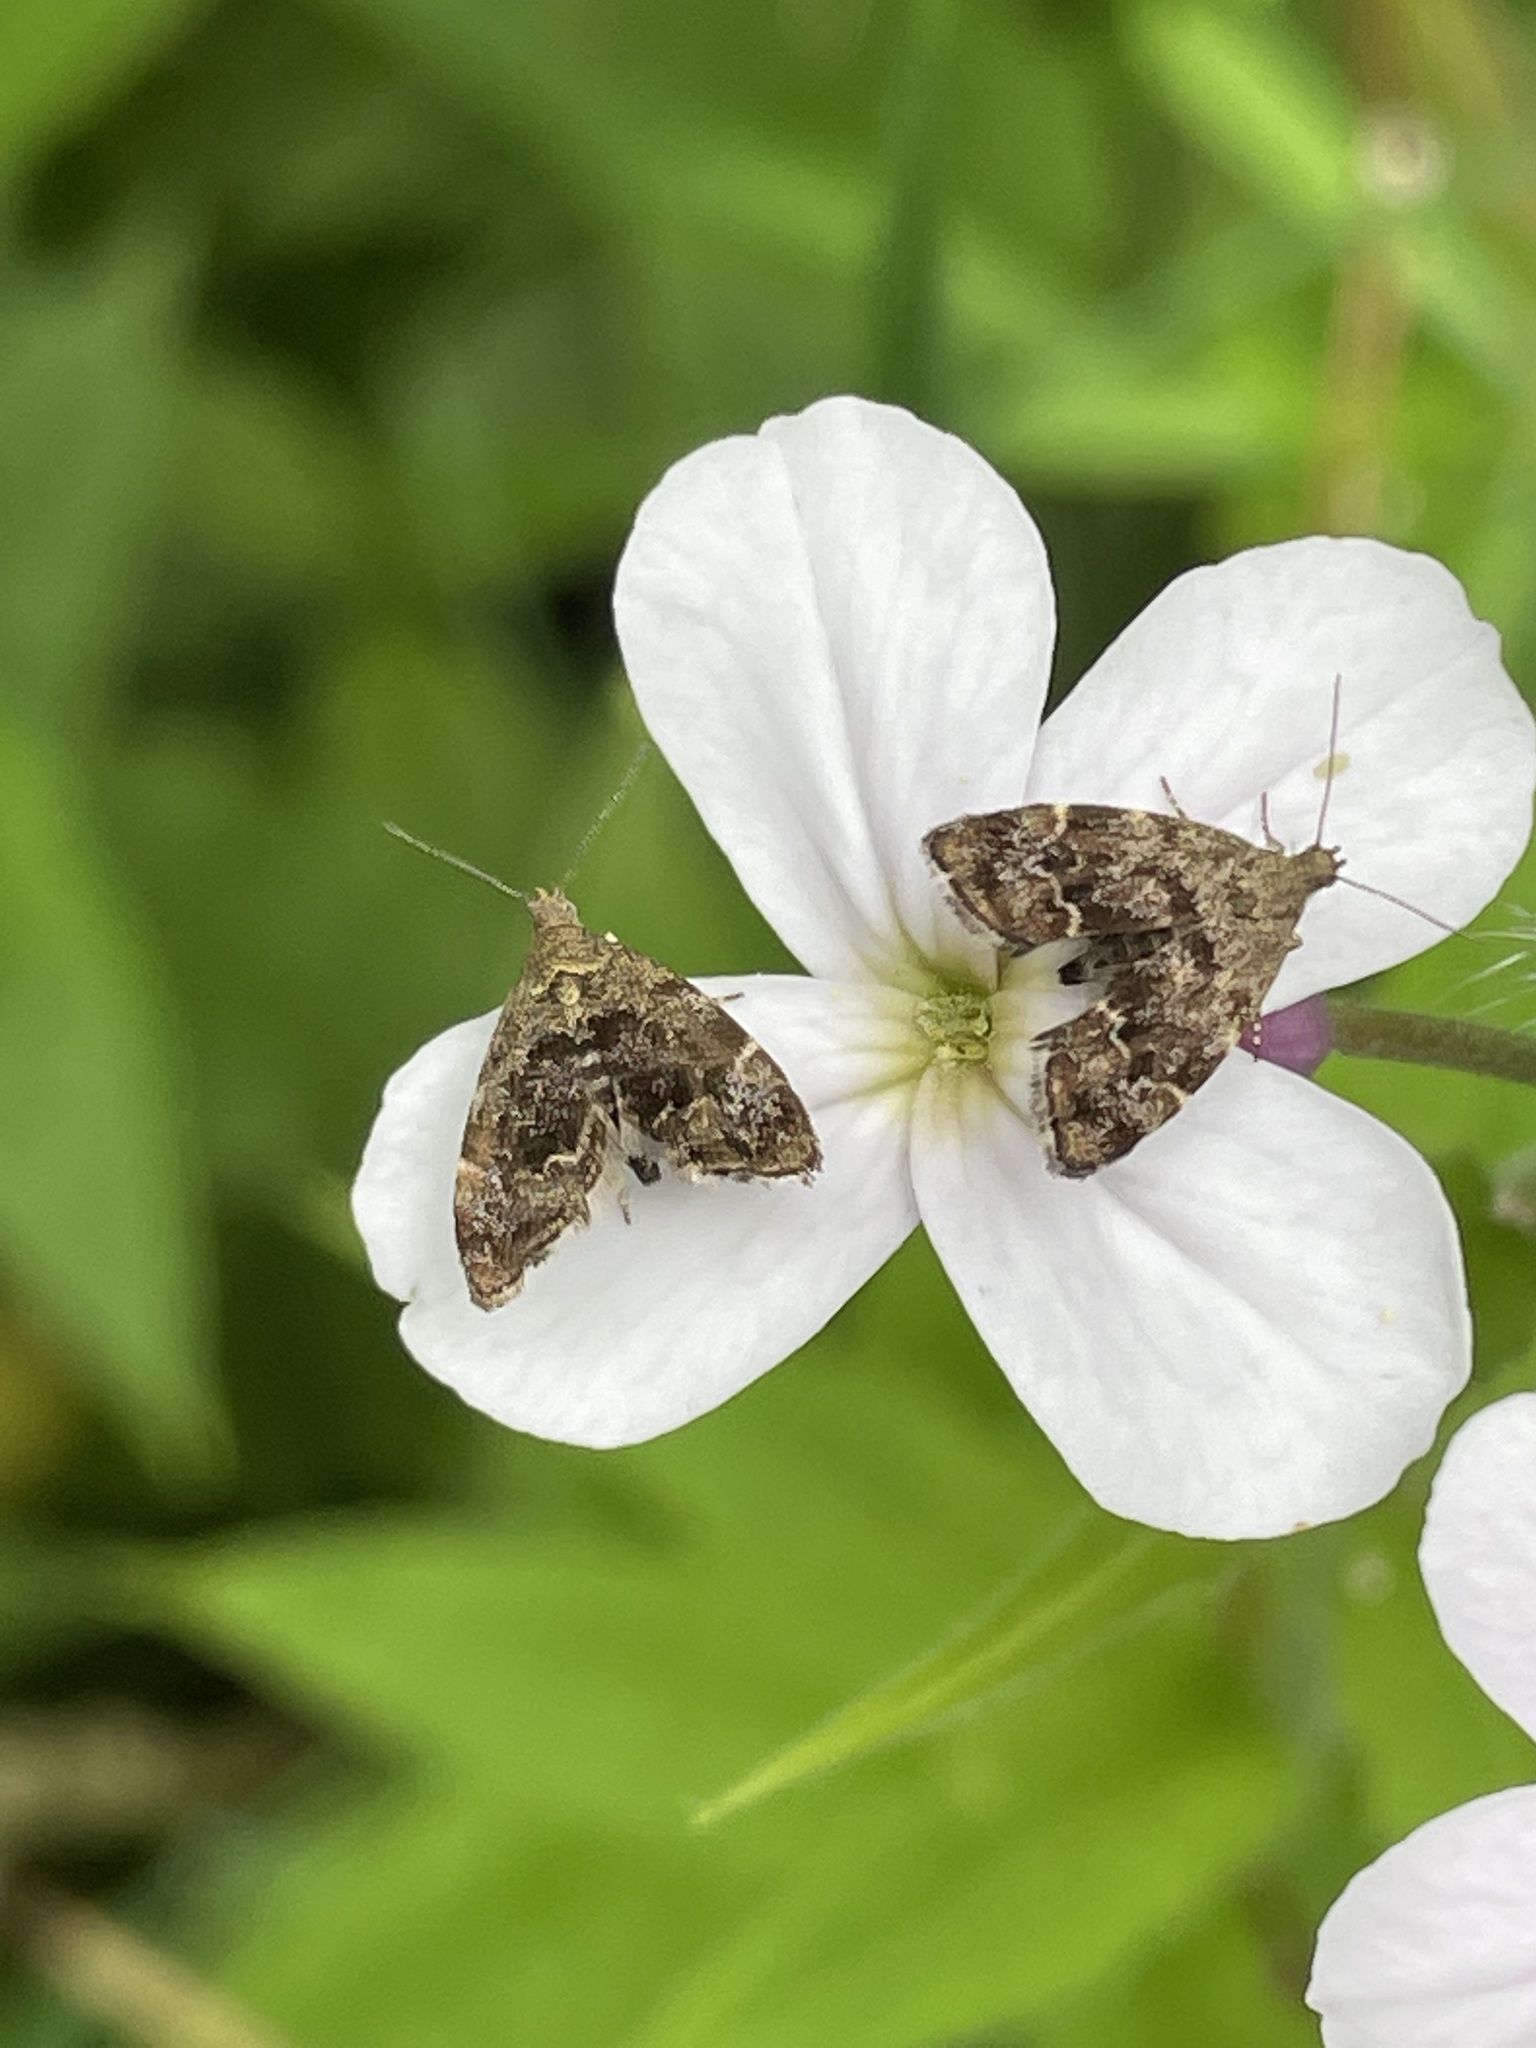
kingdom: Animalia
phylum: Arthropoda
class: Insecta
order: Lepidoptera
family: Choreutidae
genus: Anthophila
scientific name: Anthophila fabriciana
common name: Nettle-tap
